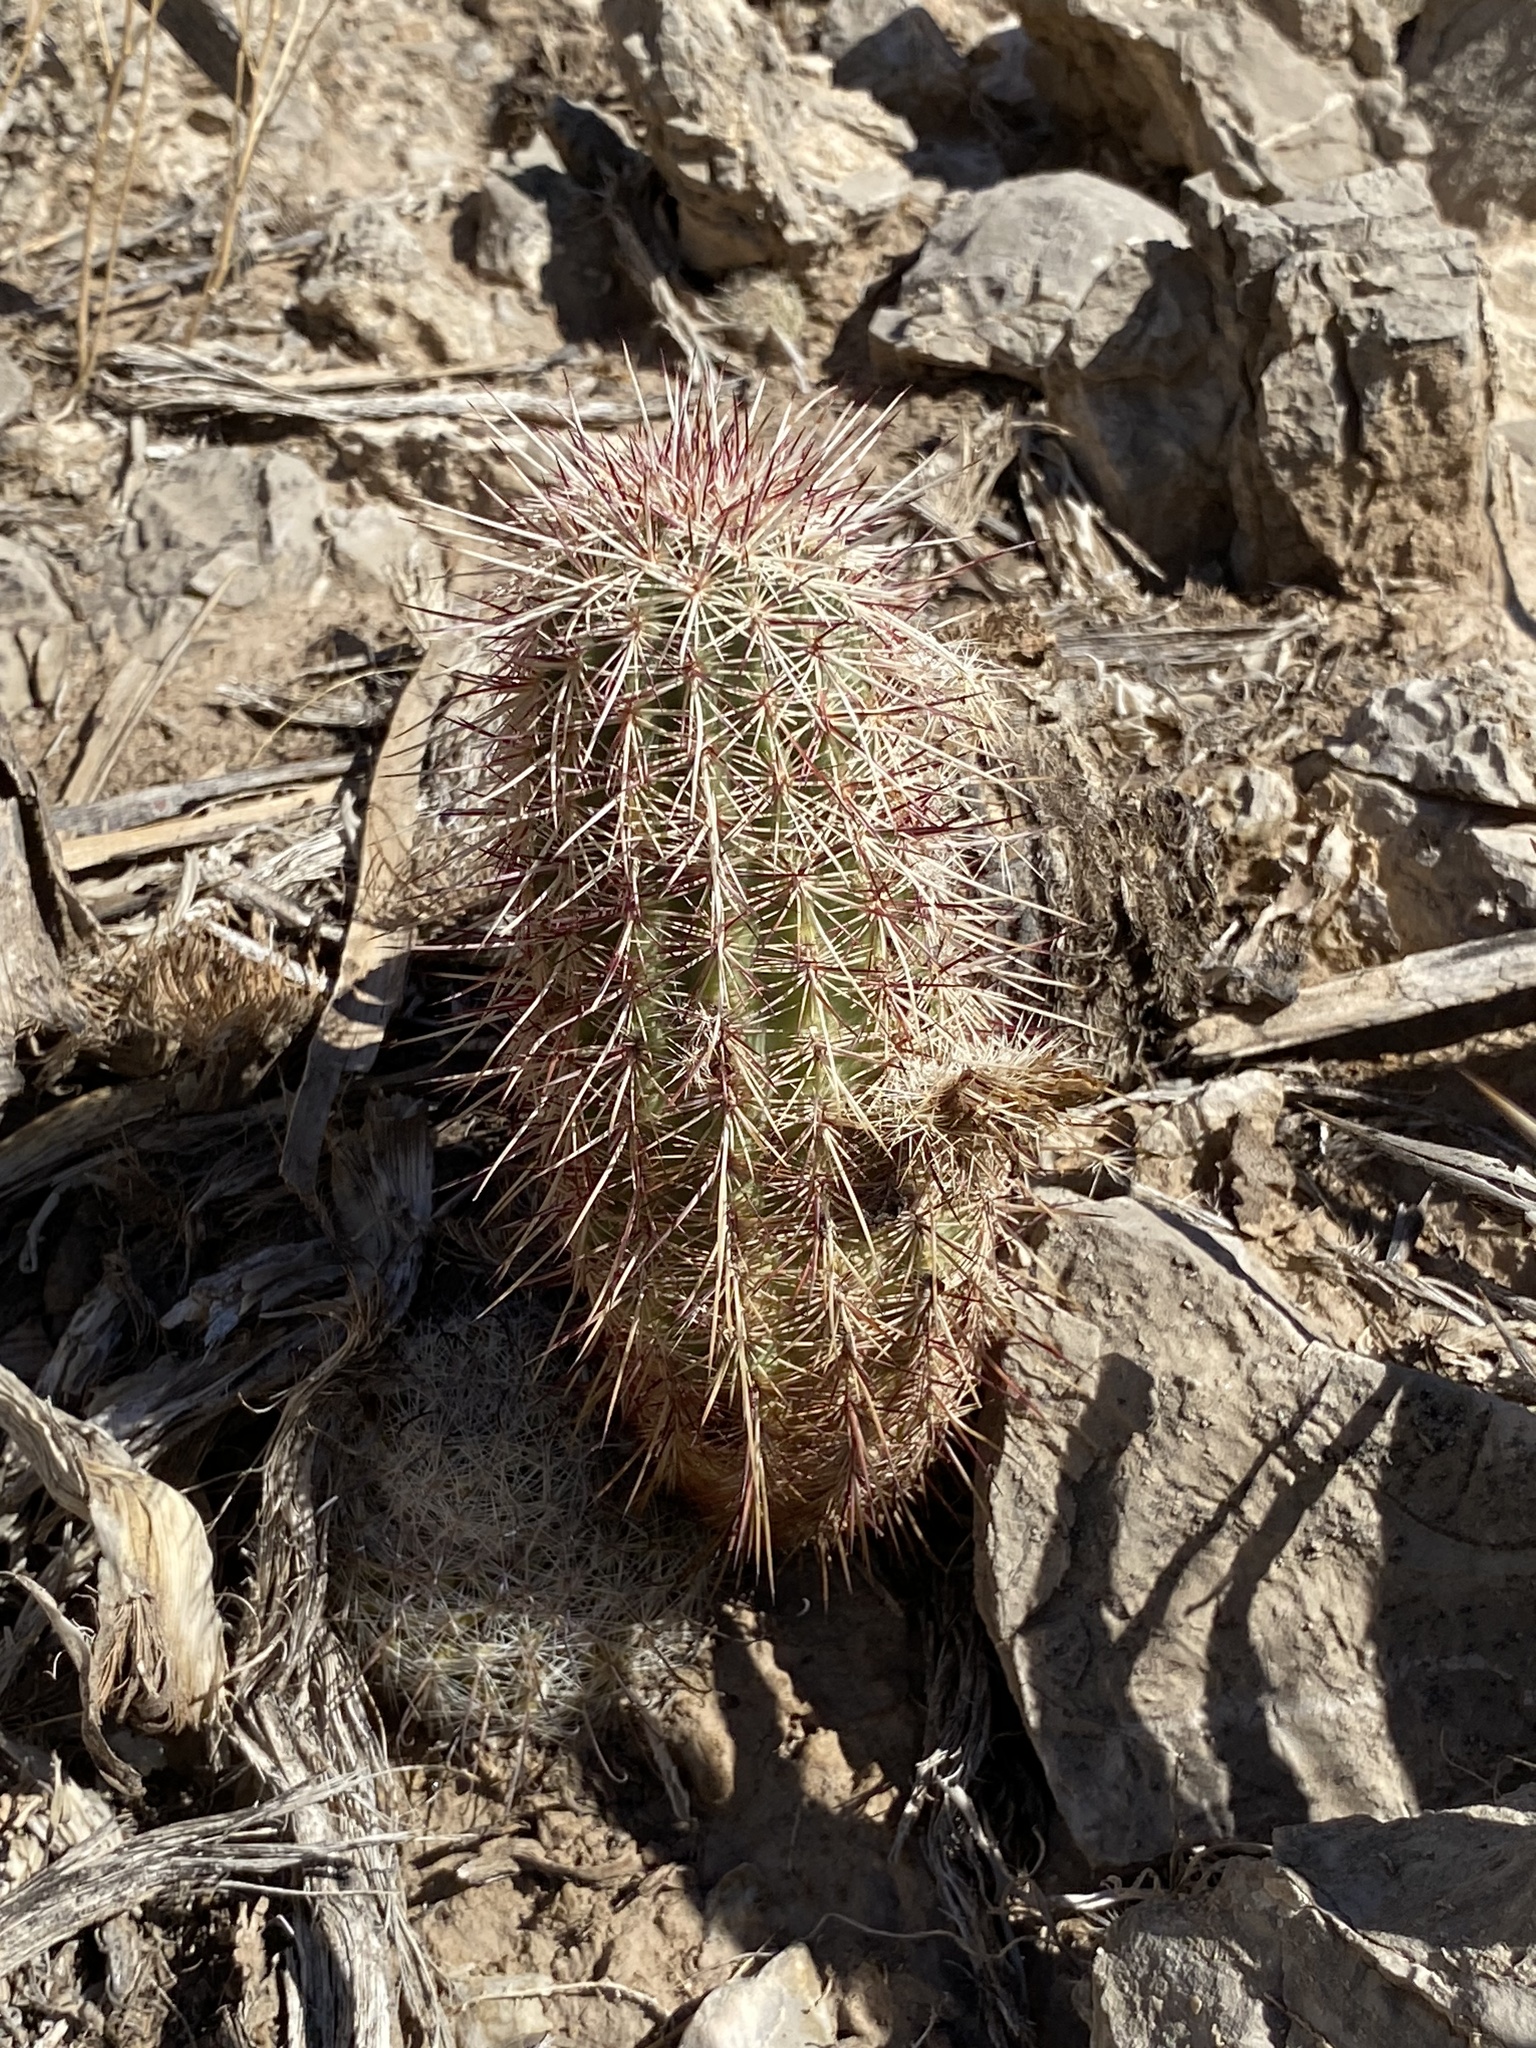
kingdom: Plantae
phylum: Tracheophyta
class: Magnoliopsida
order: Caryophyllales
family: Cactaceae
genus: Echinocereus
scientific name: Echinocereus viridiflorus
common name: Nylon hedgehog cactus
